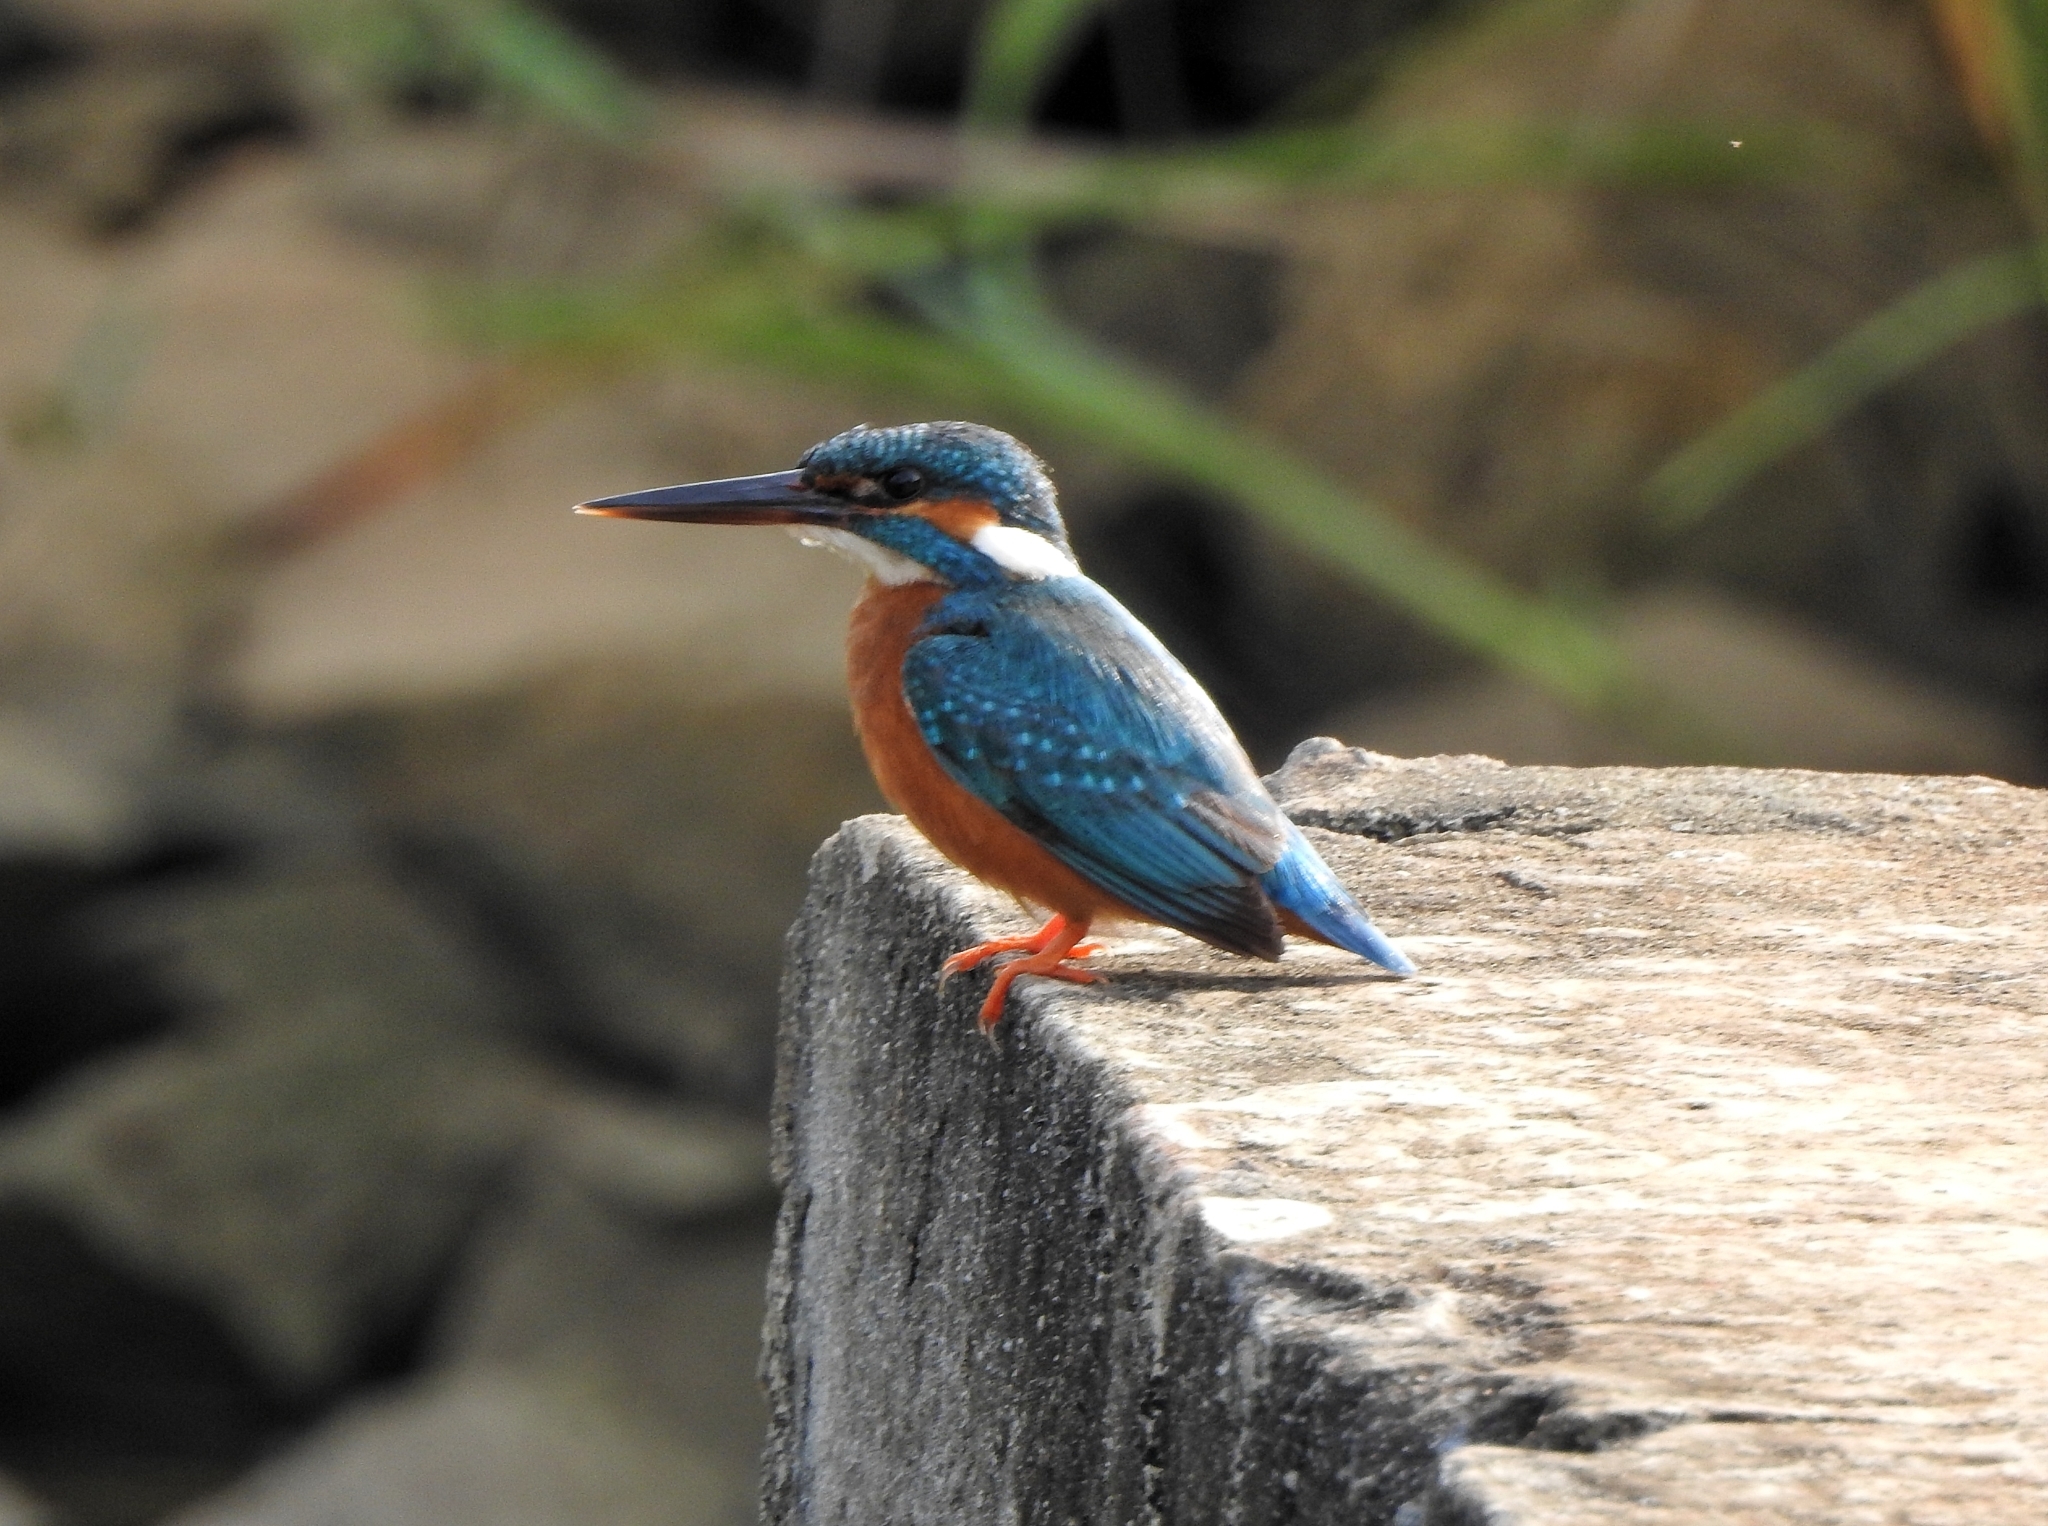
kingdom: Animalia
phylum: Chordata
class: Aves
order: Coraciiformes
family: Alcedinidae
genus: Alcedo
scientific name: Alcedo atthis
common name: Common kingfisher
